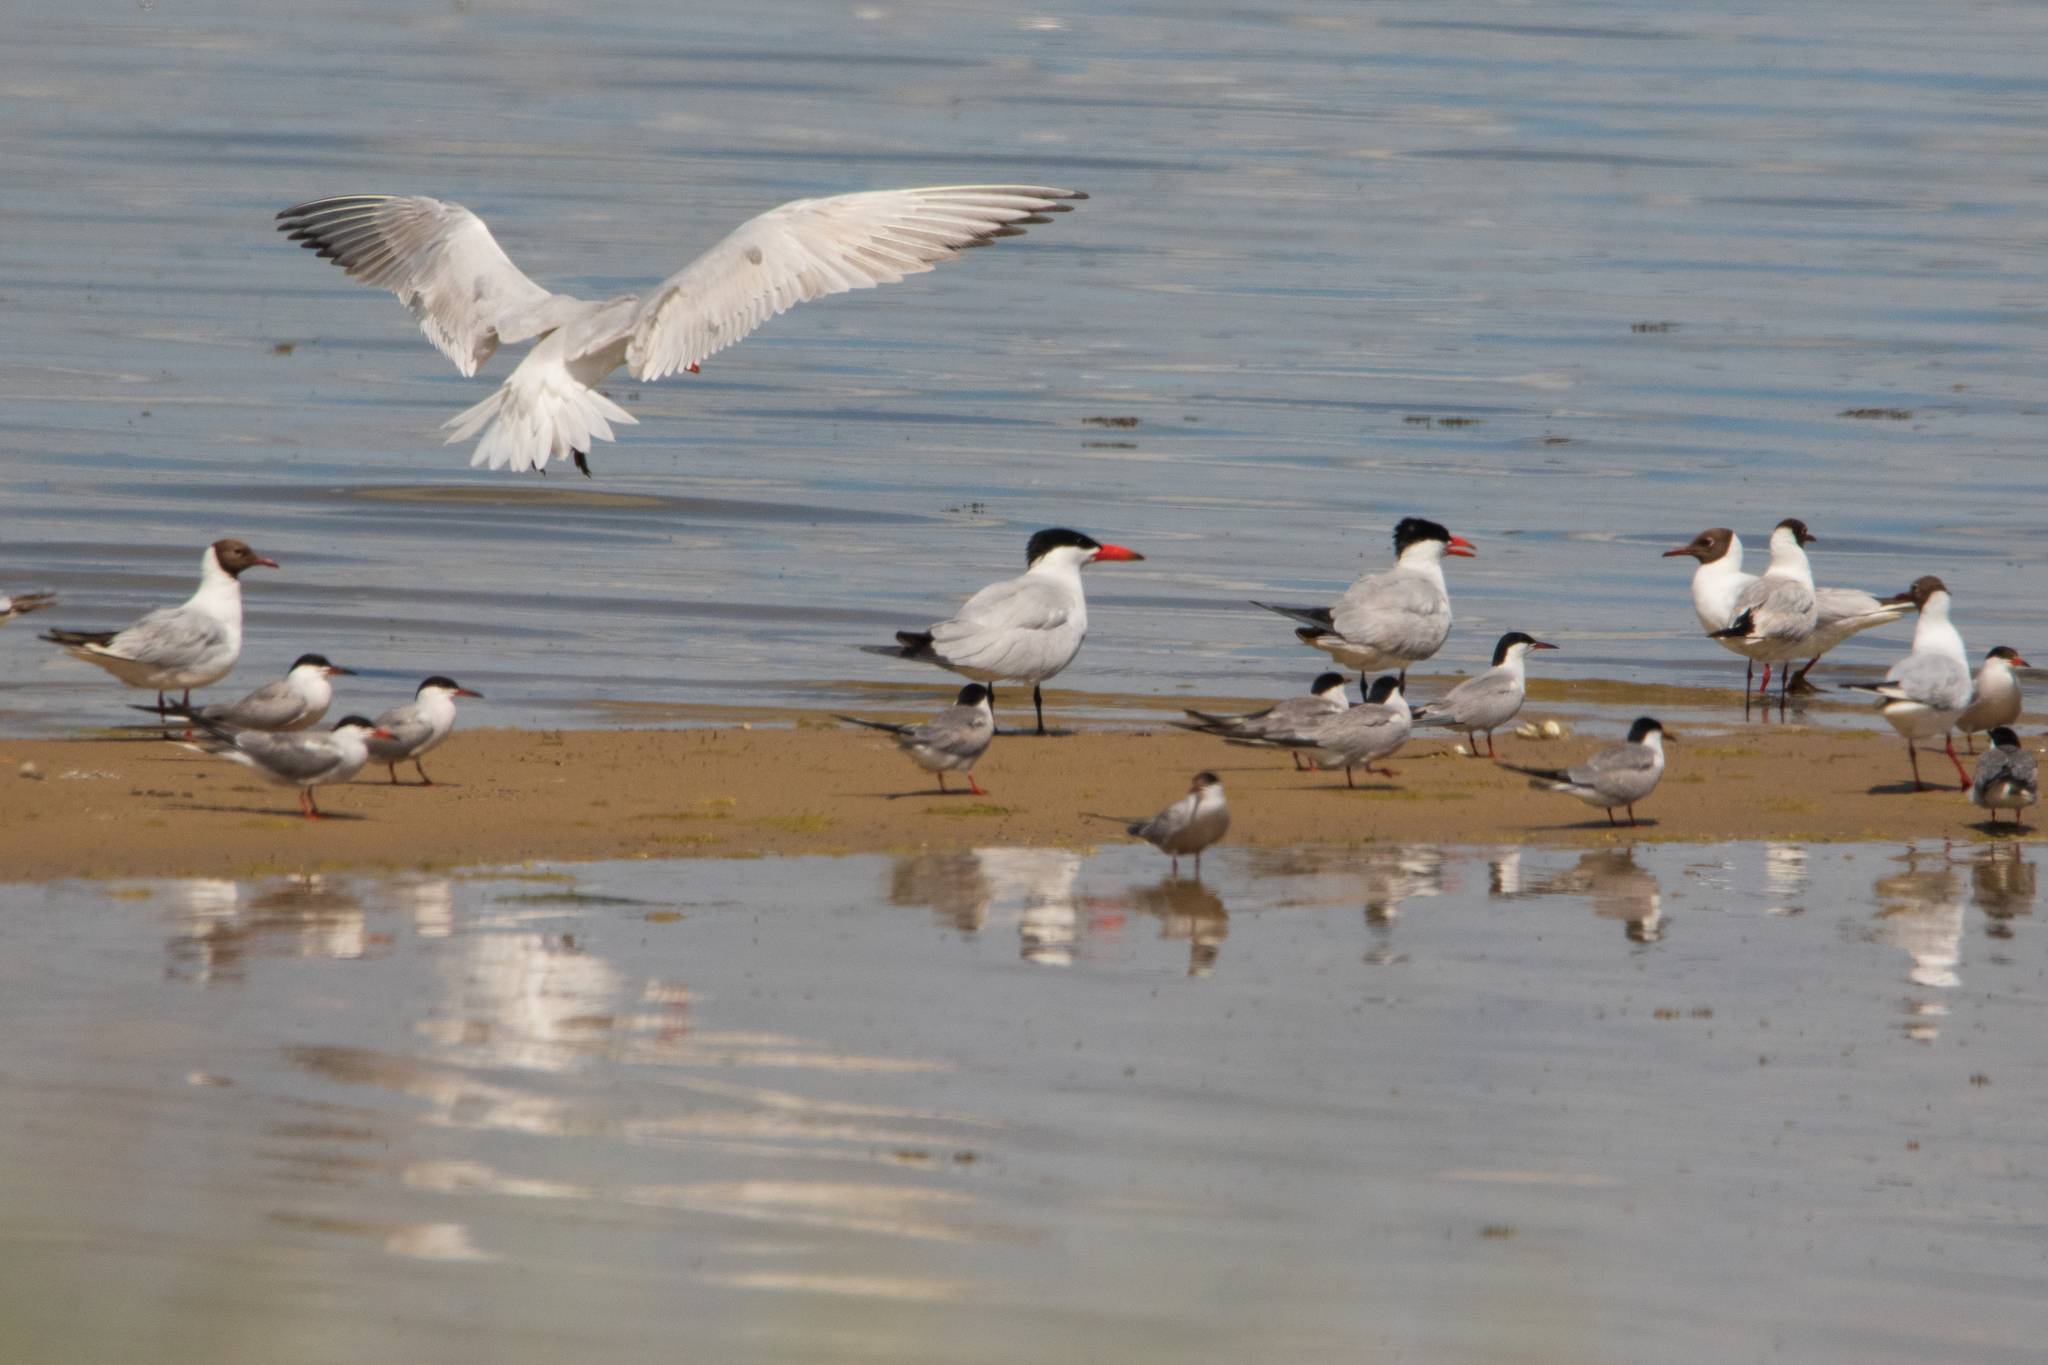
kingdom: Animalia
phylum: Chordata
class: Aves
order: Charadriiformes
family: Laridae
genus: Hydroprogne
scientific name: Hydroprogne caspia
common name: Caspian tern
